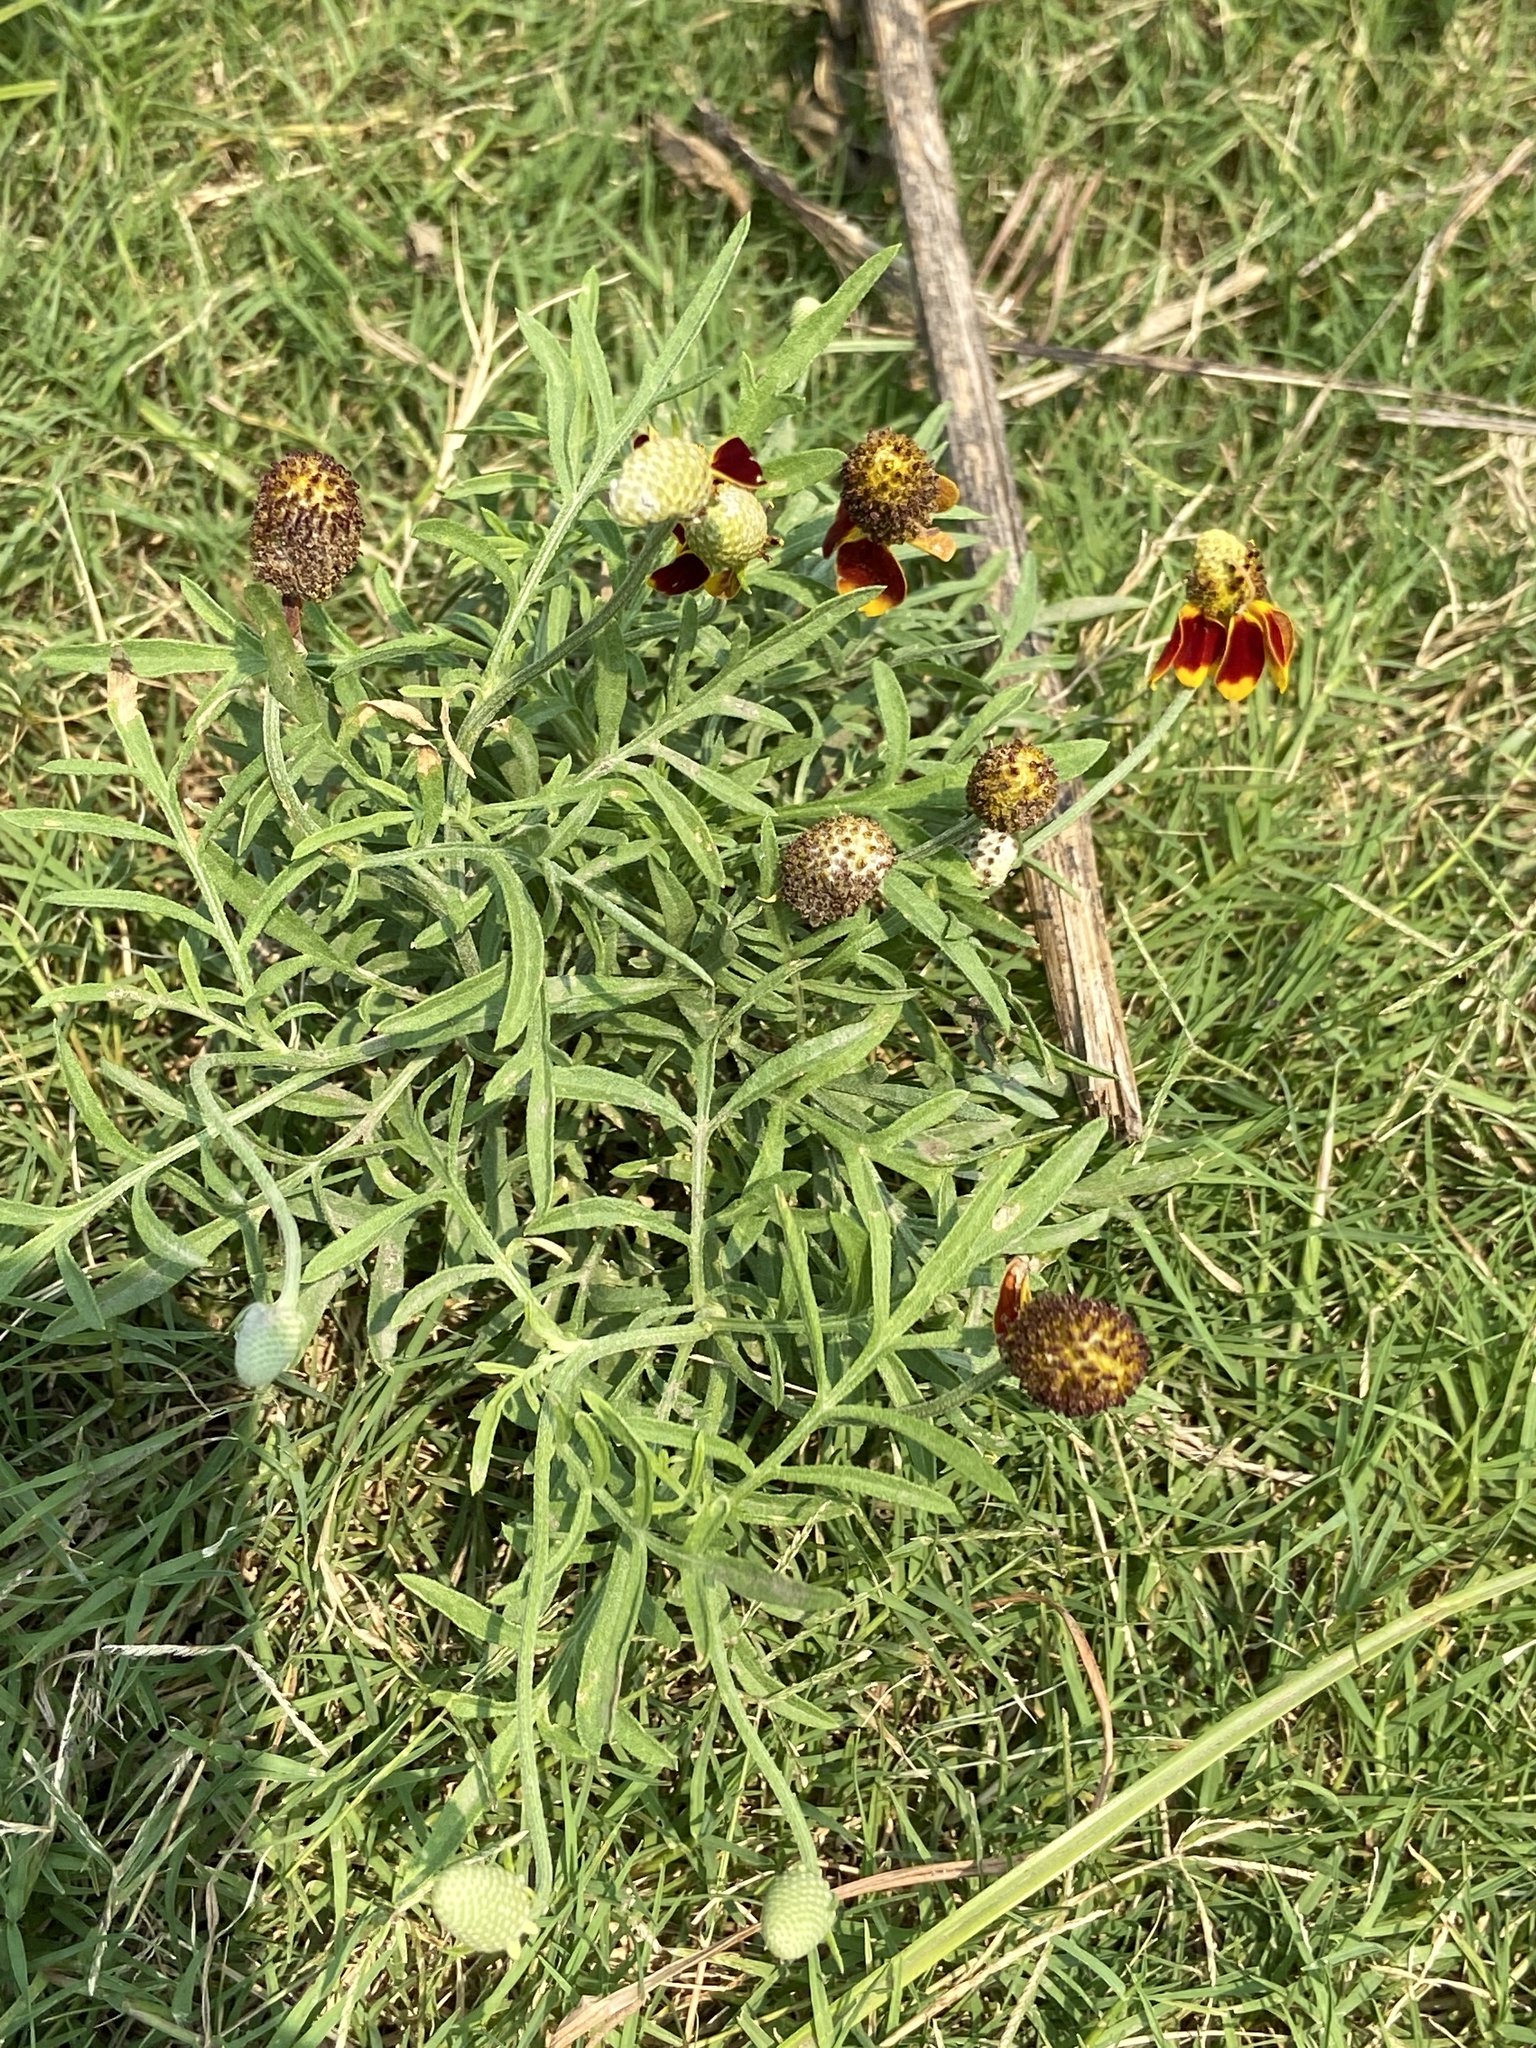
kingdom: Plantae
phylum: Tracheophyta
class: Magnoliopsida
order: Asterales
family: Asteraceae
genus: Ratibida
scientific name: Ratibida columnifera
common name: Prairie coneflower
